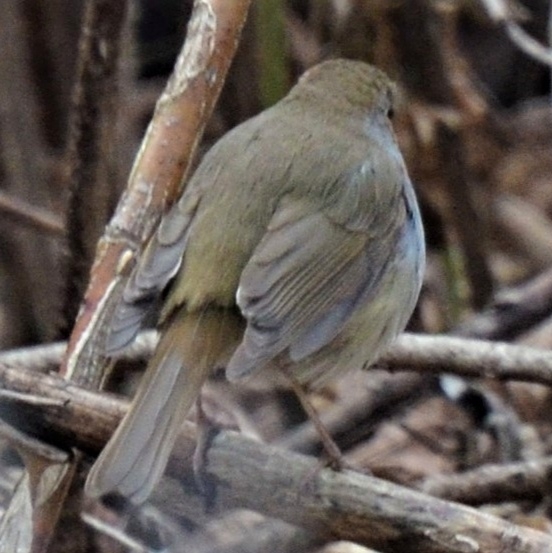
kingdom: Animalia
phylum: Chordata
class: Aves
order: Passeriformes
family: Muscicapidae
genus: Erithacus
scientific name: Erithacus rubecula
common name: European robin
